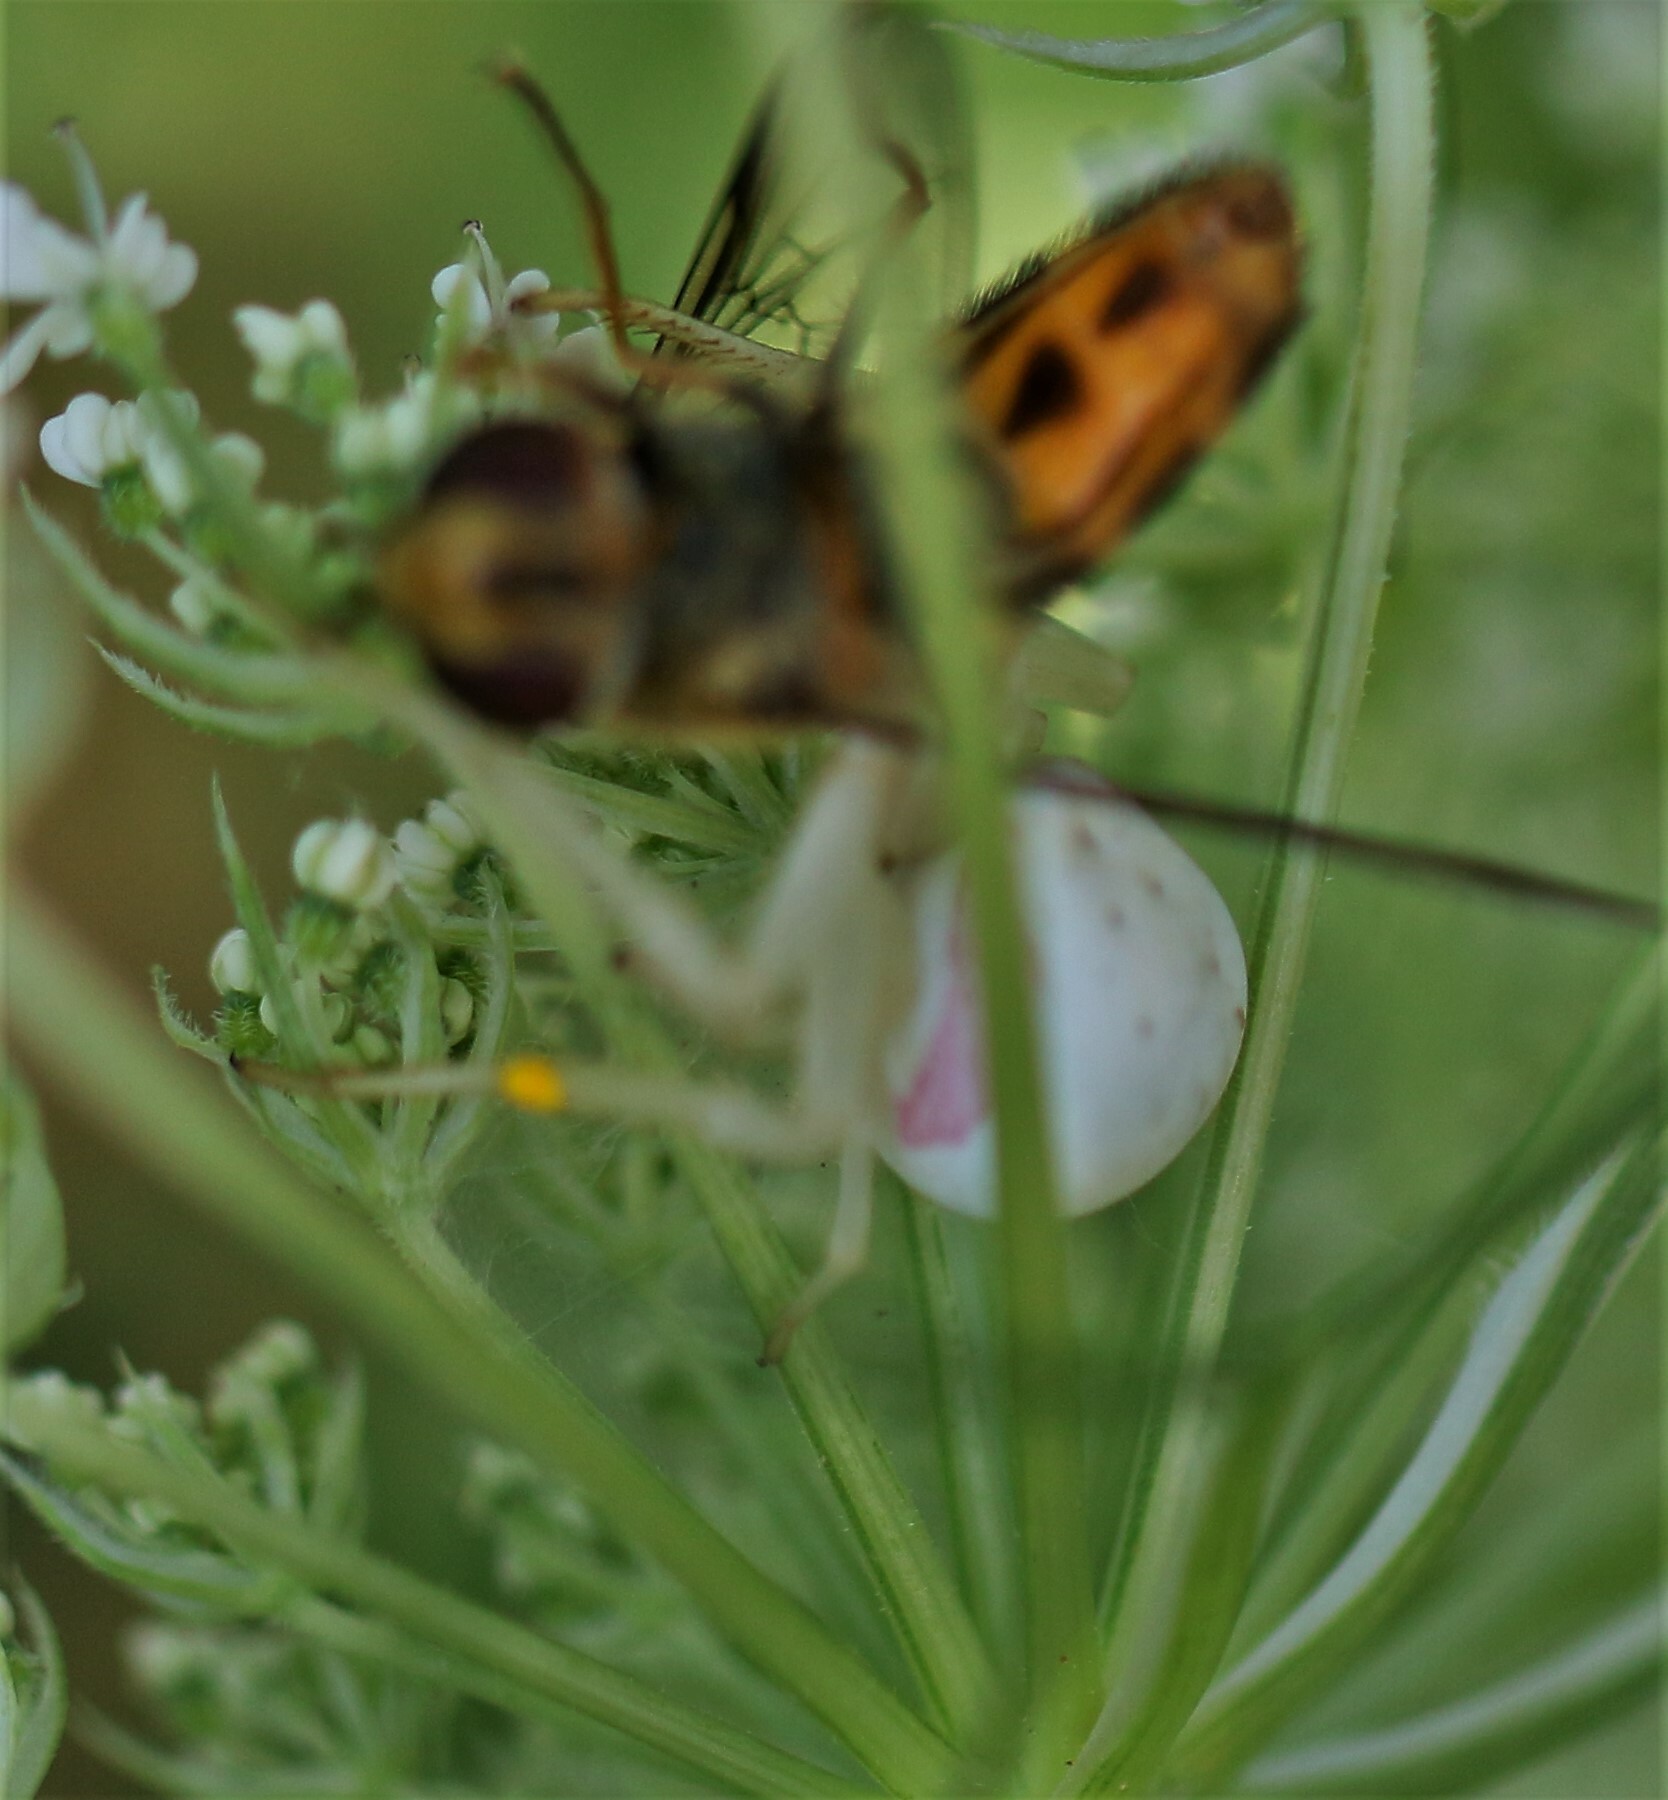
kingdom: Animalia
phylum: Arthropoda
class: Arachnida
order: Araneae
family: Thomisidae
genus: Misumena
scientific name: Misumena vatia
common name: Goldenrod crab spider
